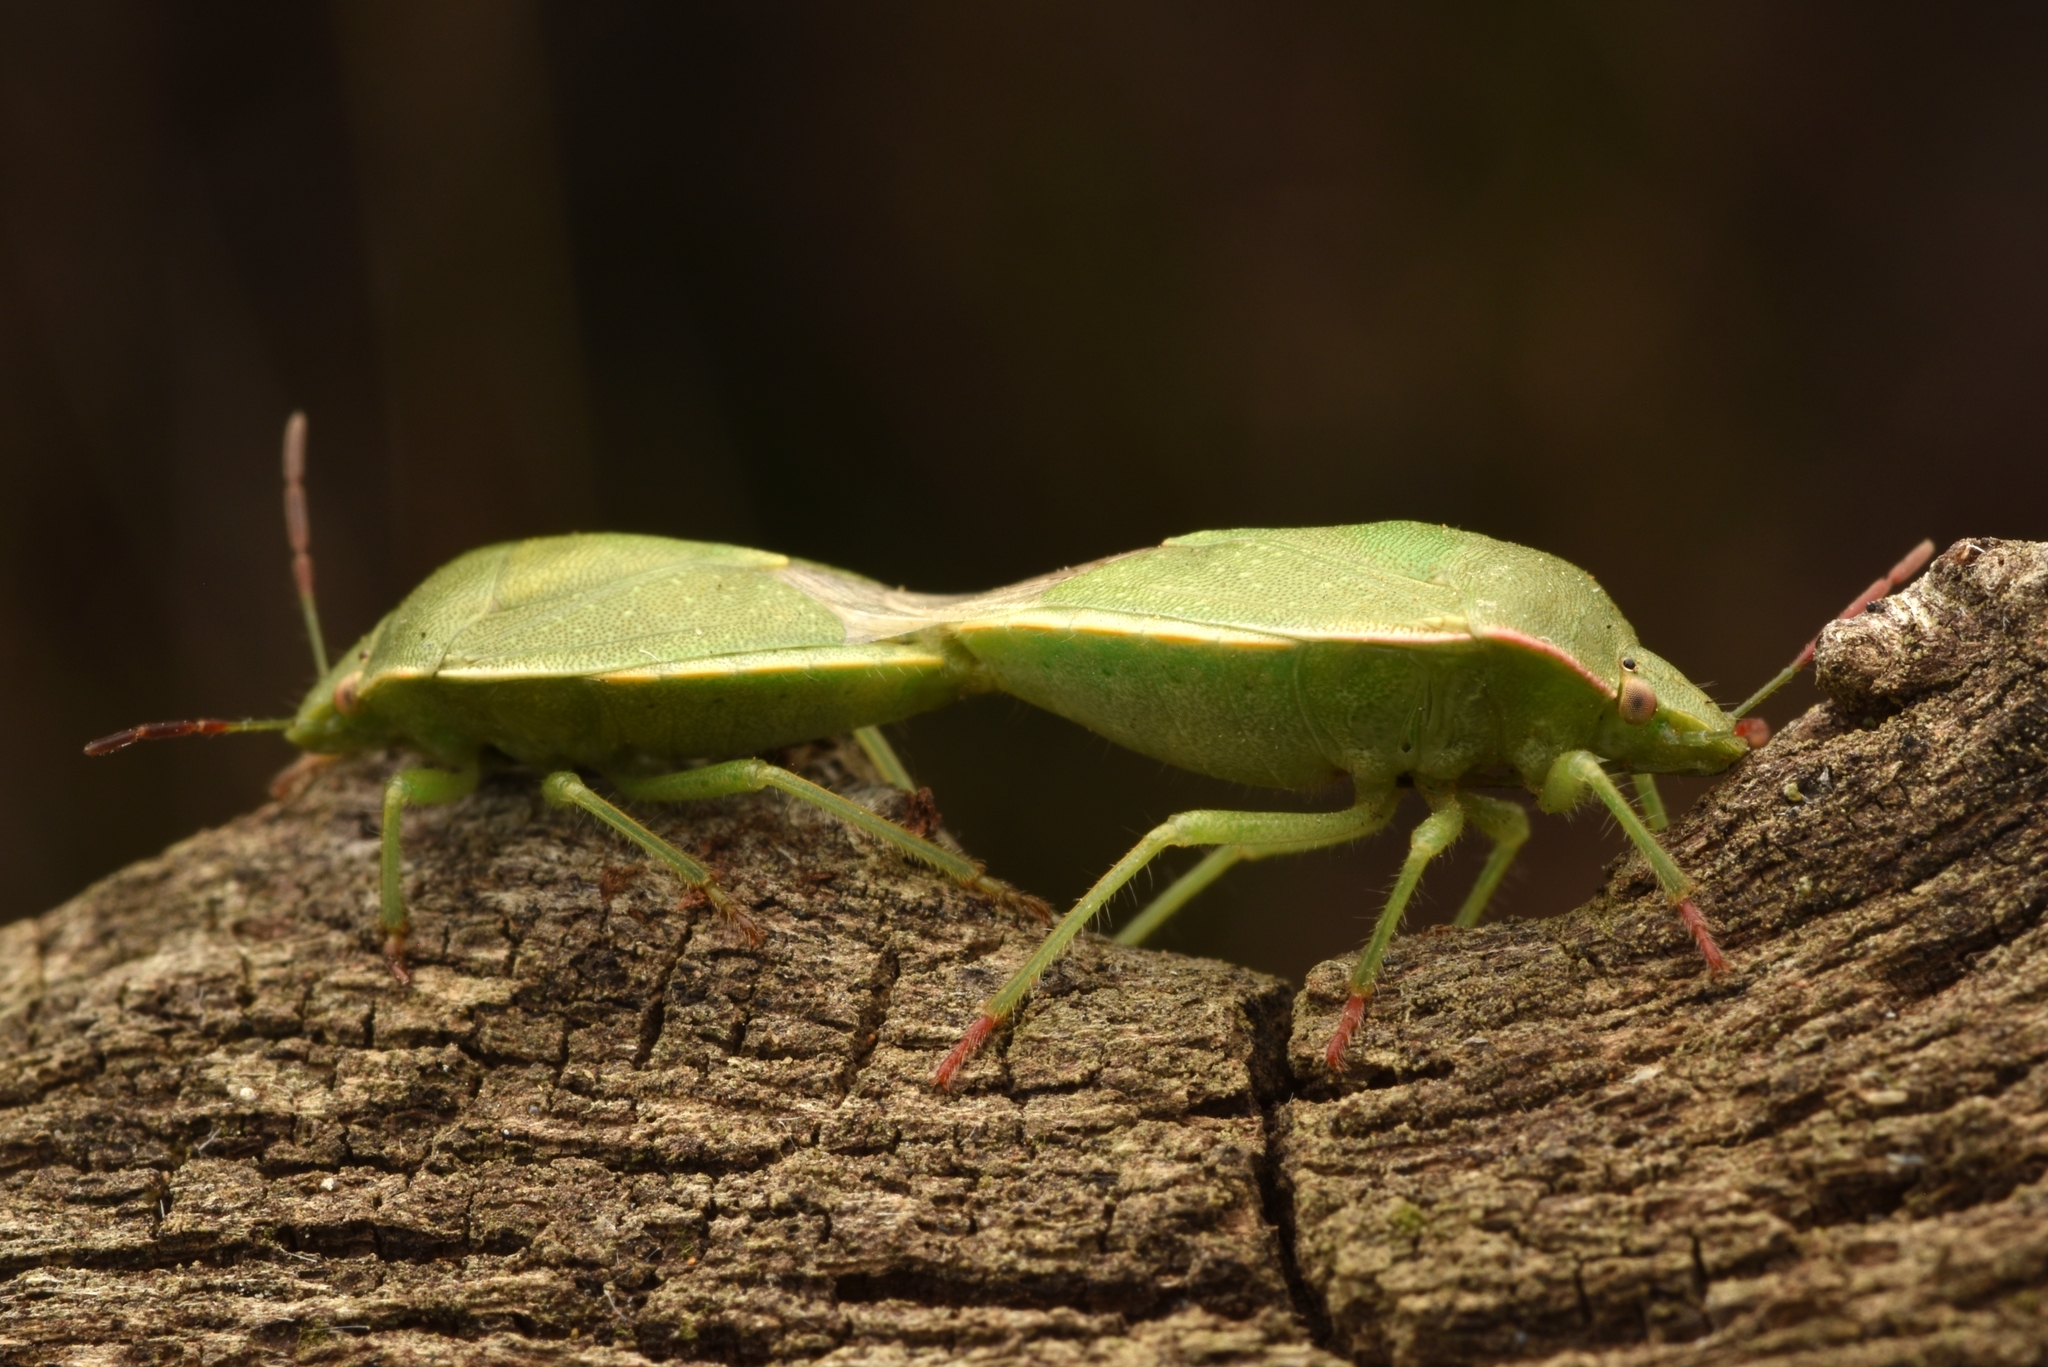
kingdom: Animalia
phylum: Arthropoda
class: Insecta
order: Hemiptera
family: Pentatomidae
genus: Thyanta
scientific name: Thyanta accerra
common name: Stink bug
